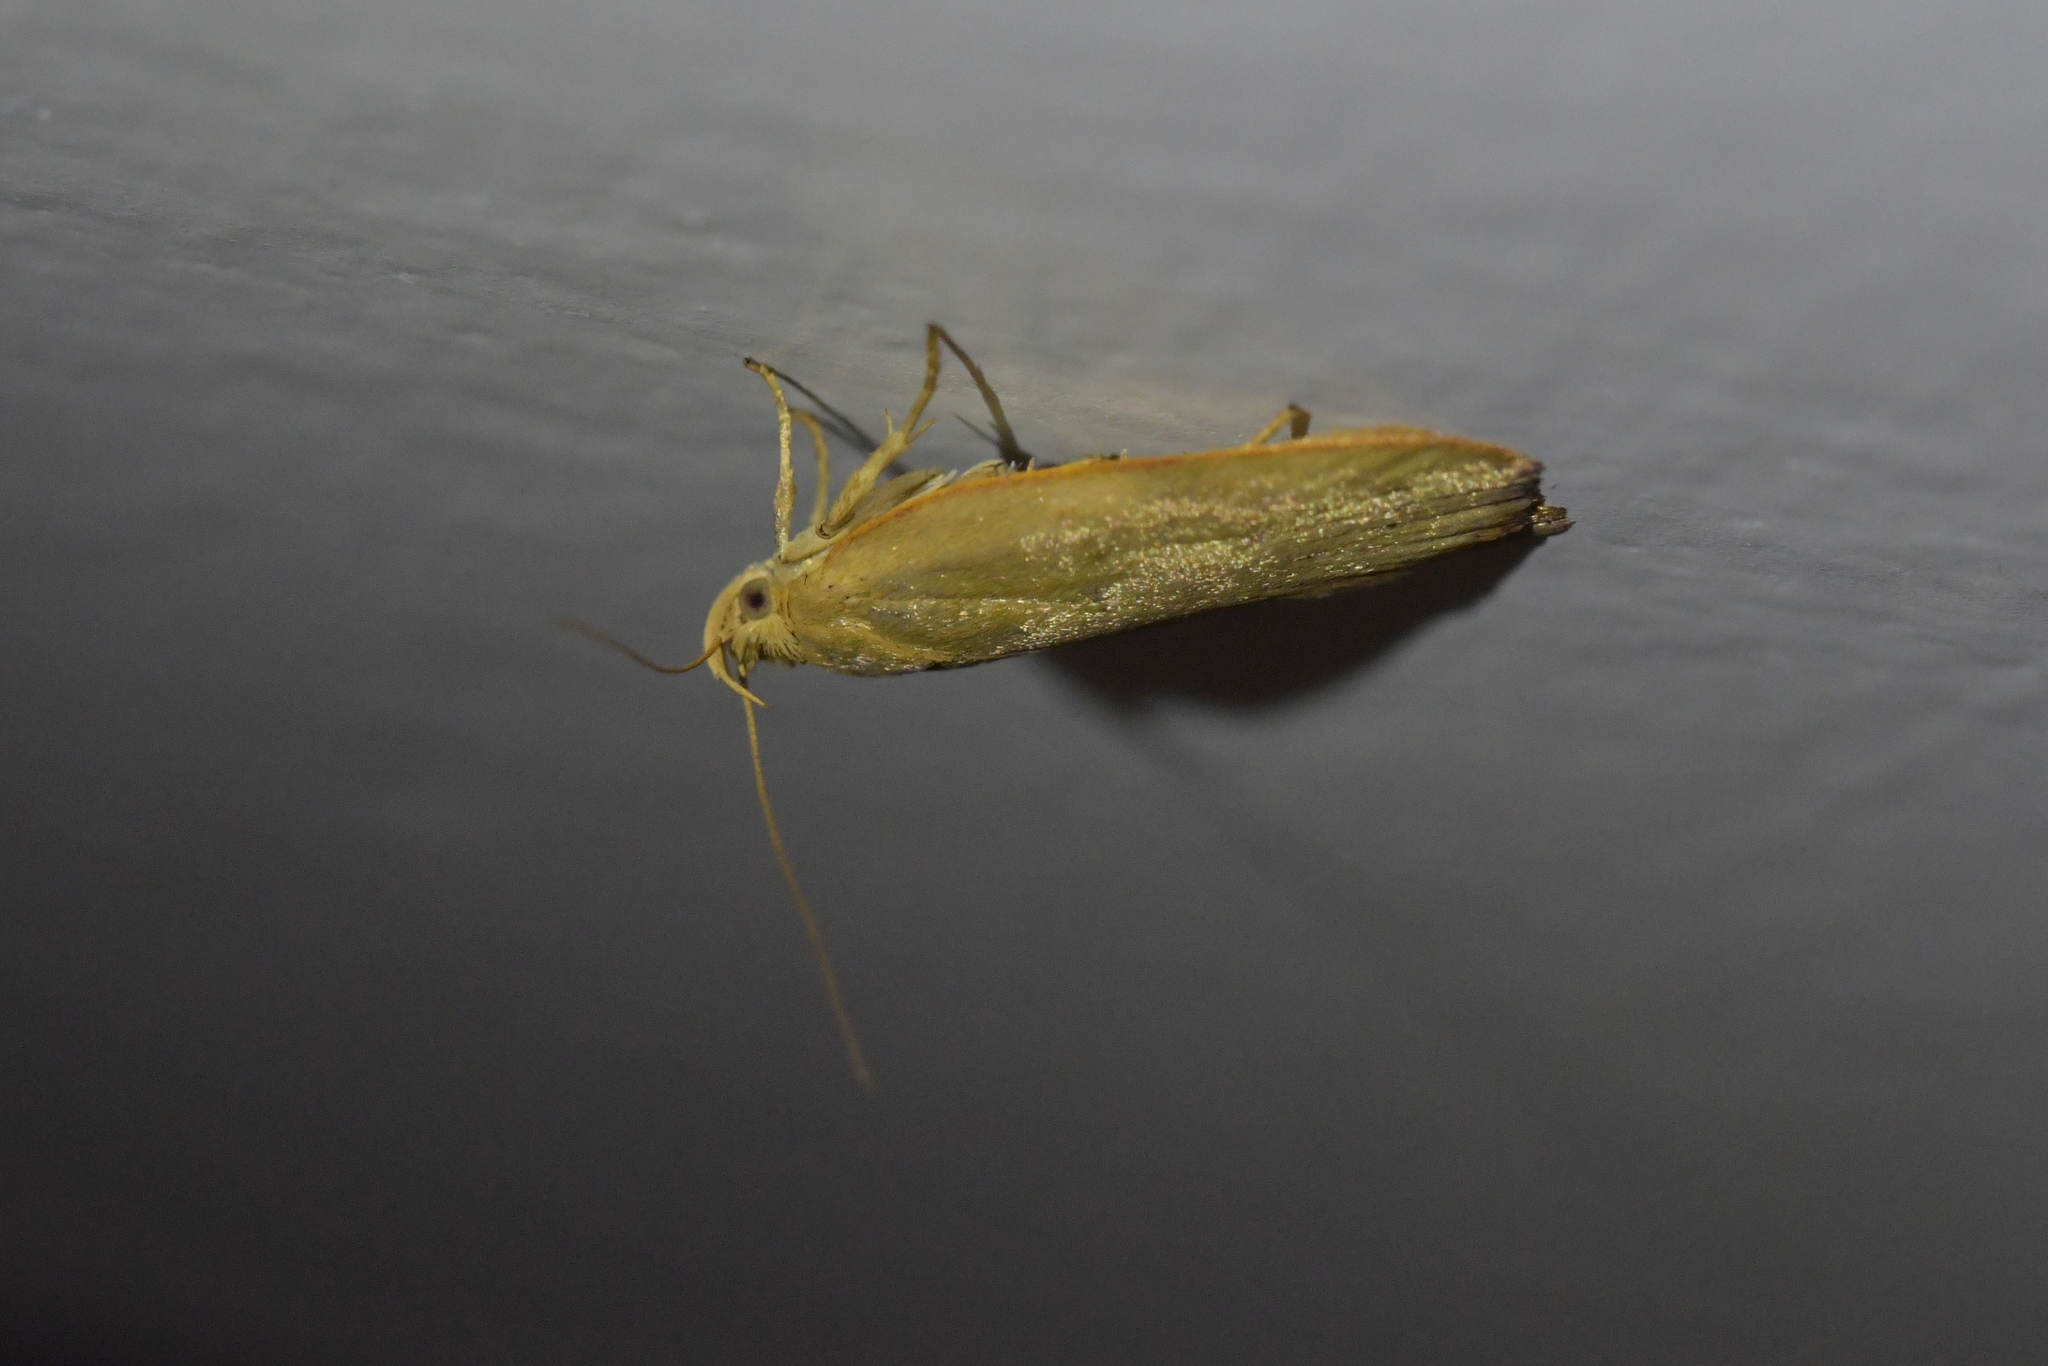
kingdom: Animalia
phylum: Arthropoda
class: Insecta
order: Lepidoptera
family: Depressariidae
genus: Phaeosaces
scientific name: Phaeosaces coarctatella
